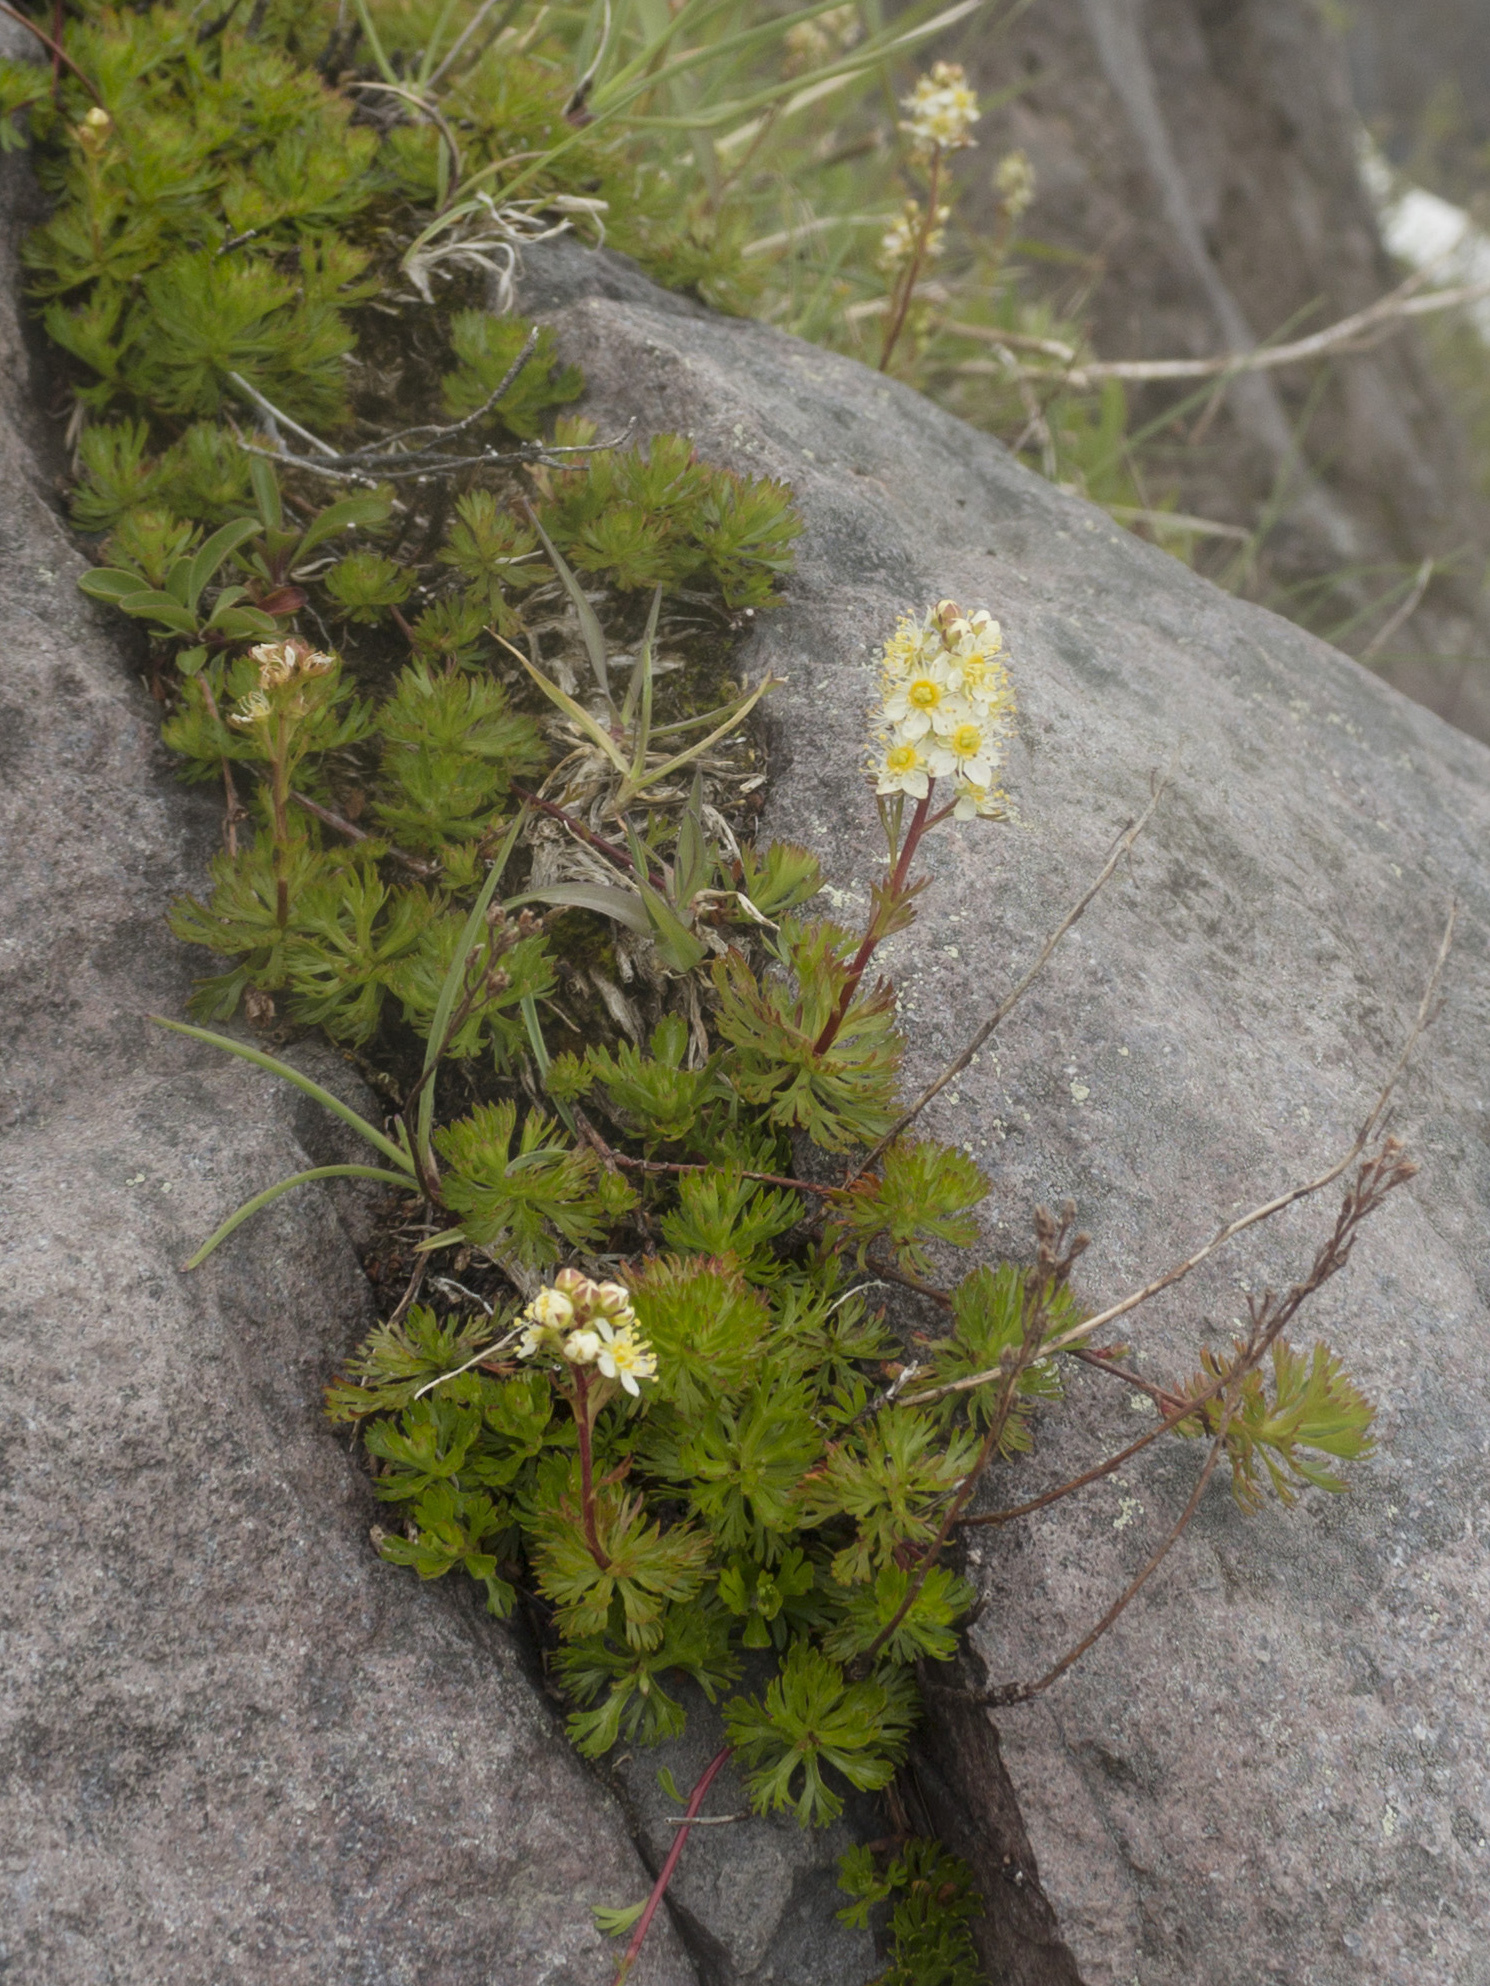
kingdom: Plantae
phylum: Tracheophyta
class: Magnoliopsida
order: Rosales
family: Rosaceae
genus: Luetkea
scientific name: Luetkea pectinata
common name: Partridgefoot
